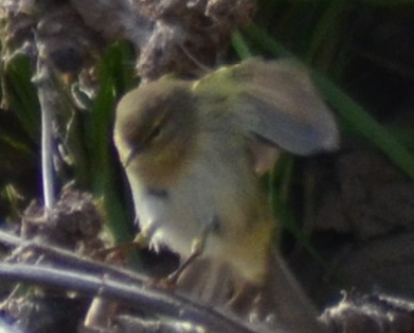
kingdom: Animalia
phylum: Chordata
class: Aves
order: Passeriformes
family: Phylloscopidae
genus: Phylloscopus
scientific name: Phylloscopus collybita
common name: Common chiffchaff
